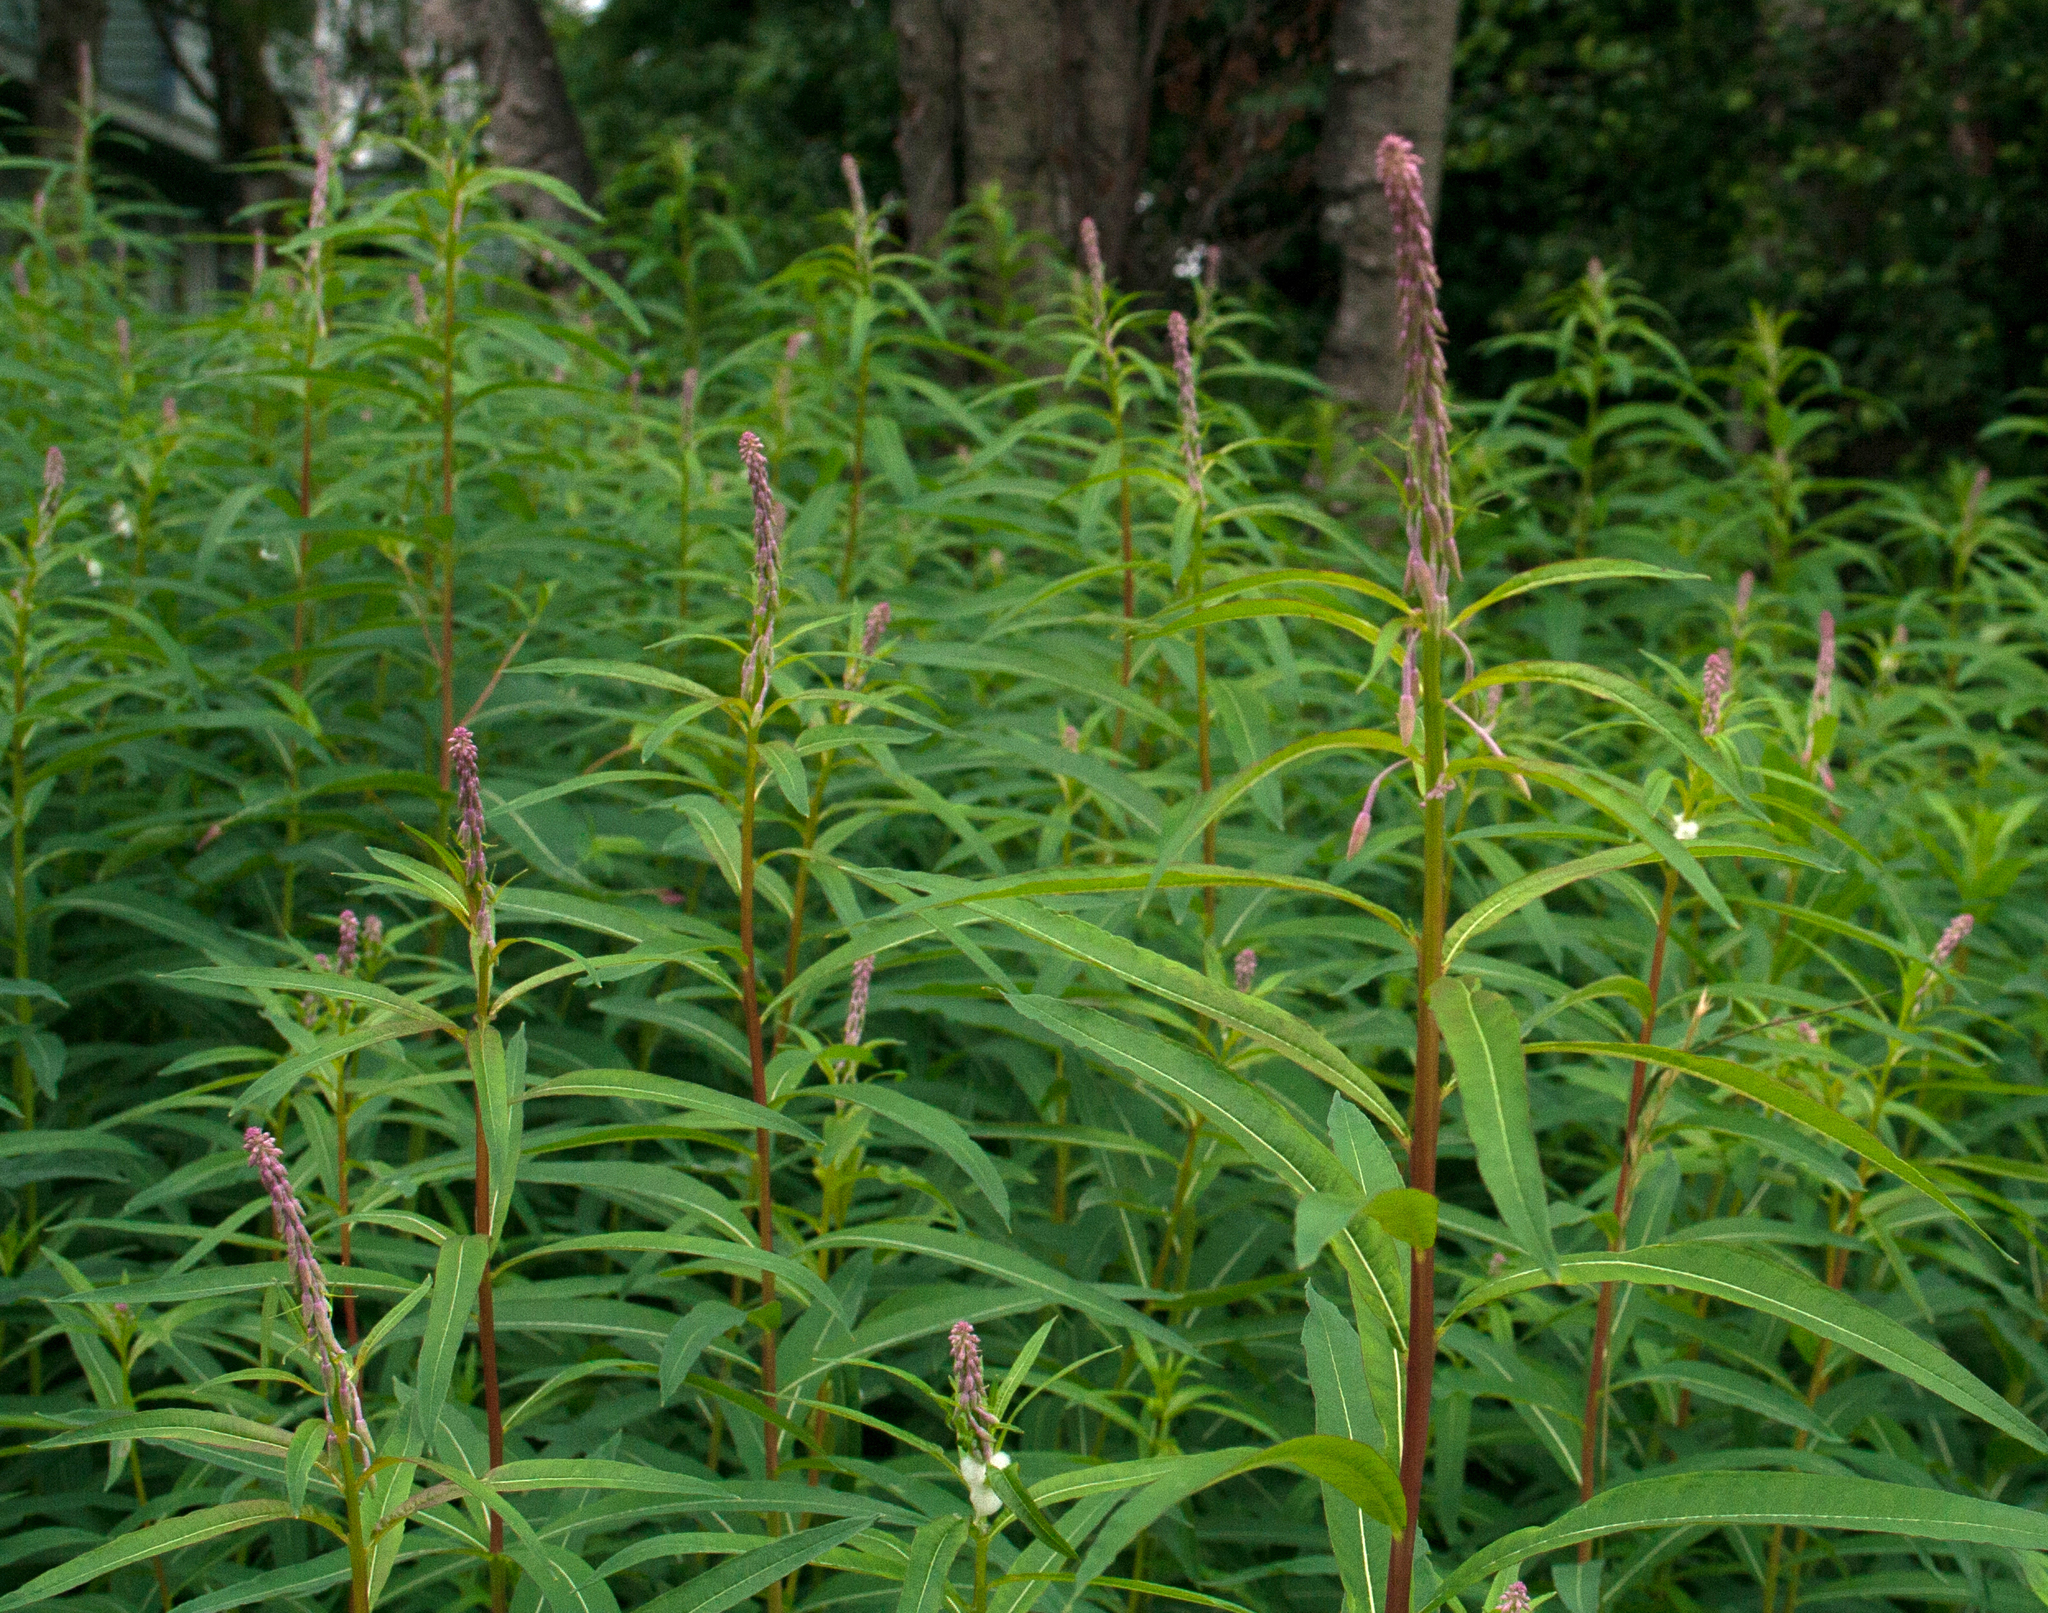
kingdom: Plantae
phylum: Tracheophyta
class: Magnoliopsida
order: Myrtales
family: Onagraceae
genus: Chamaenerion
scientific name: Chamaenerion angustifolium
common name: Fireweed
